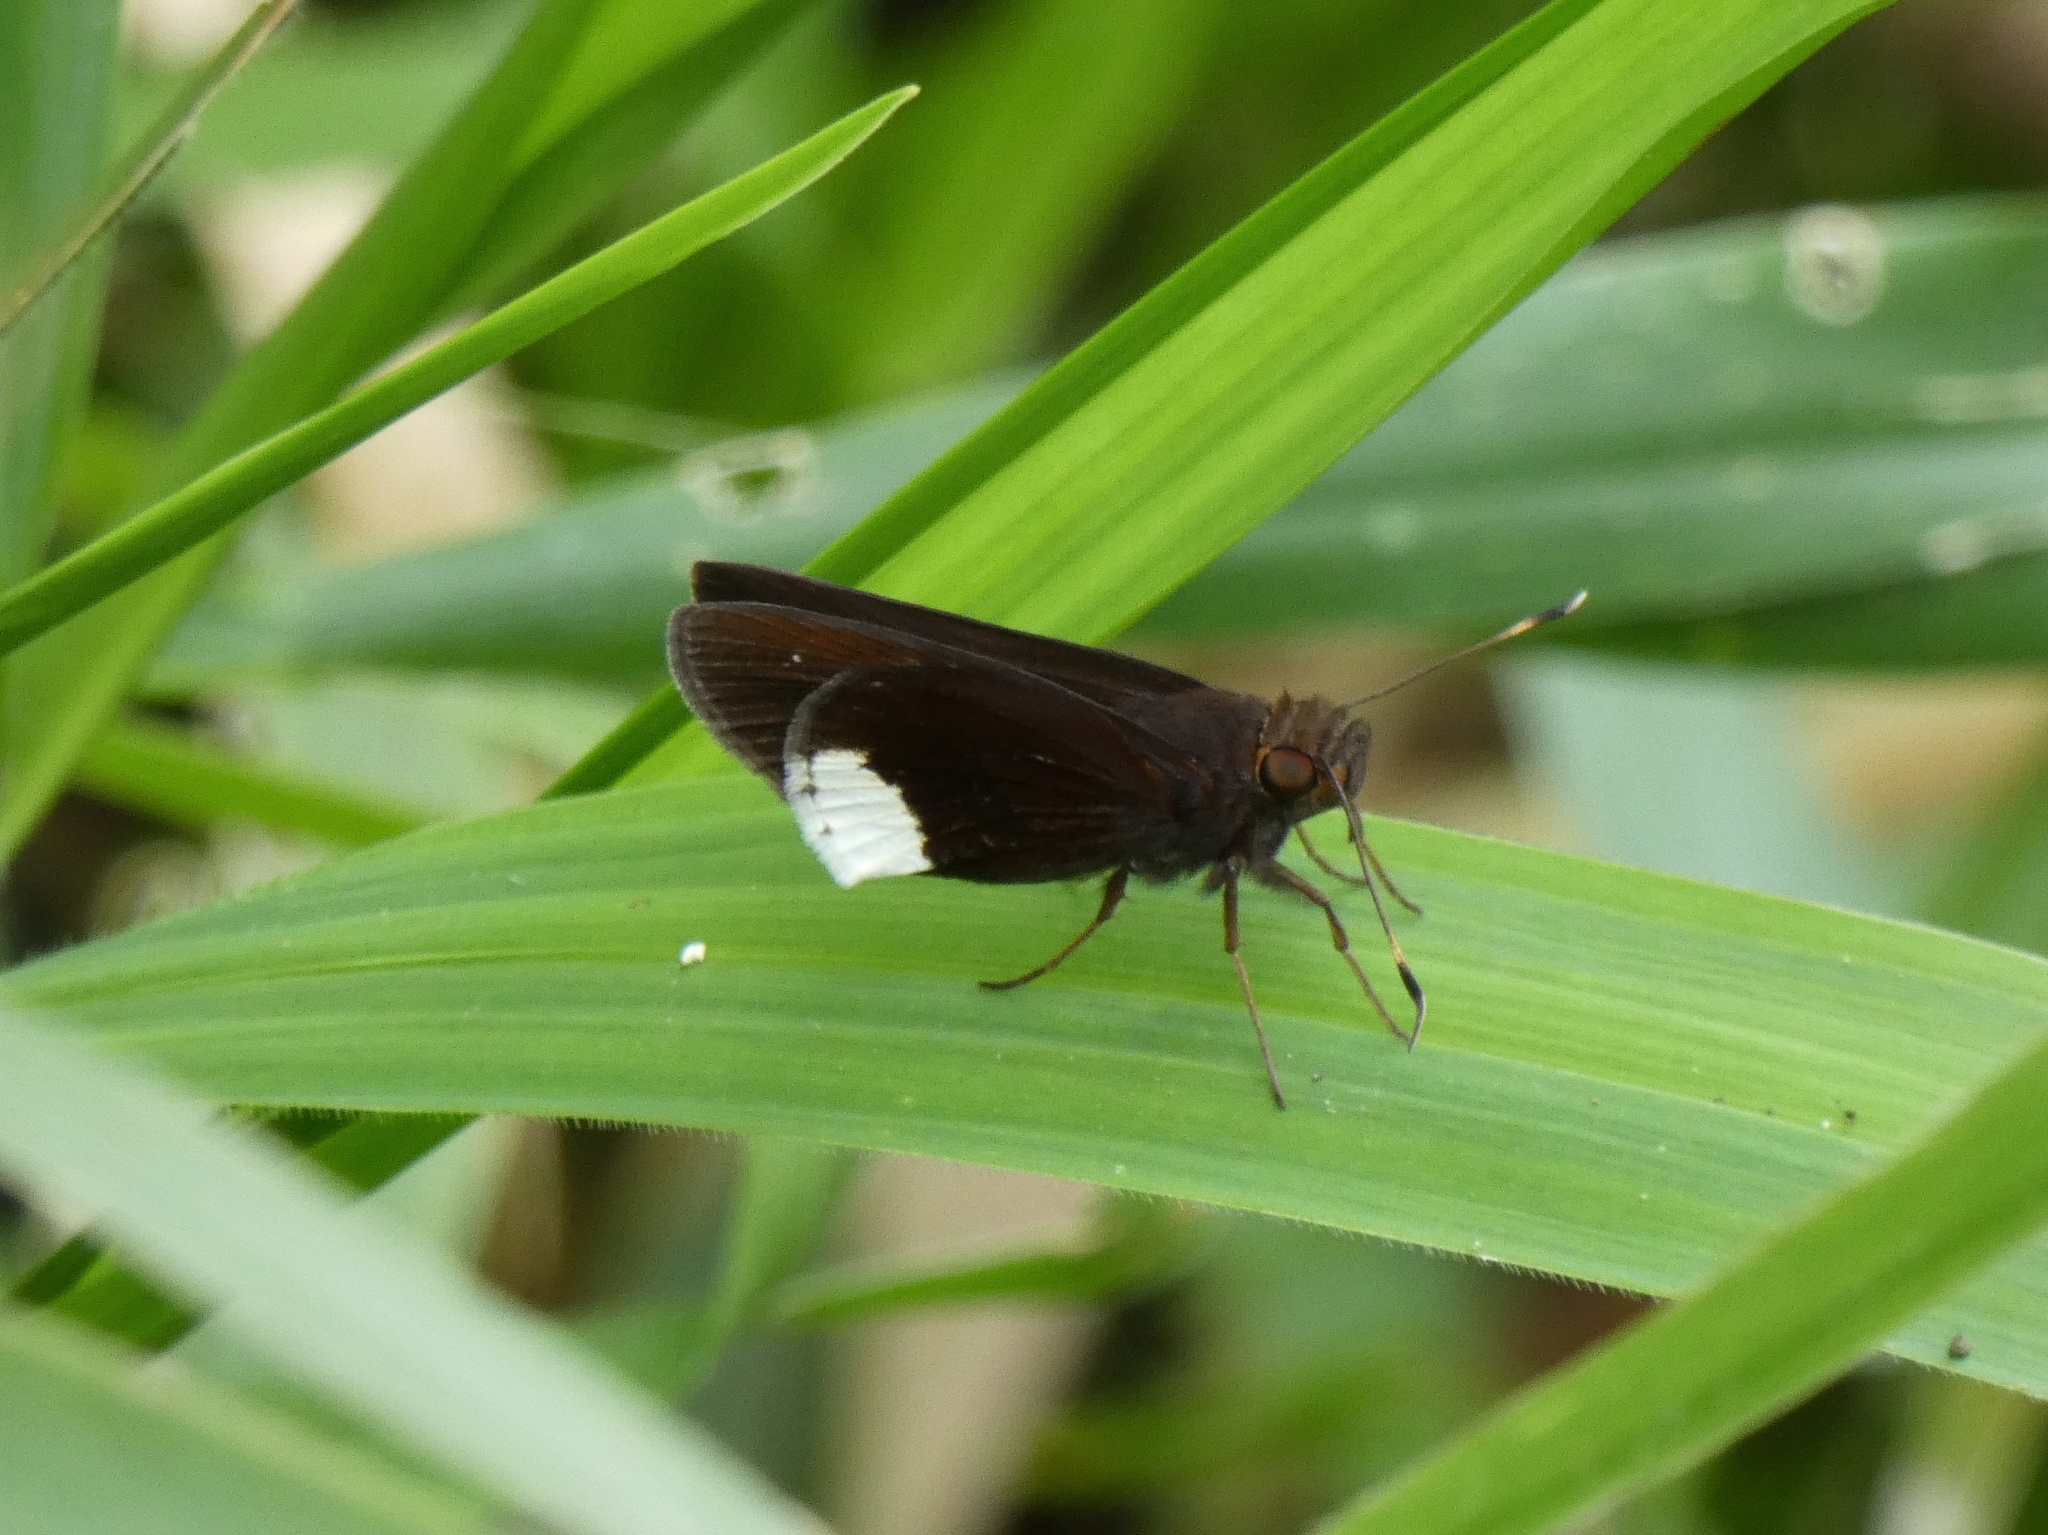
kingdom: Animalia
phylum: Arthropoda
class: Insecta
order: Lepidoptera
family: Hesperiidae
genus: Cobalus
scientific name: Cobalus virbius
